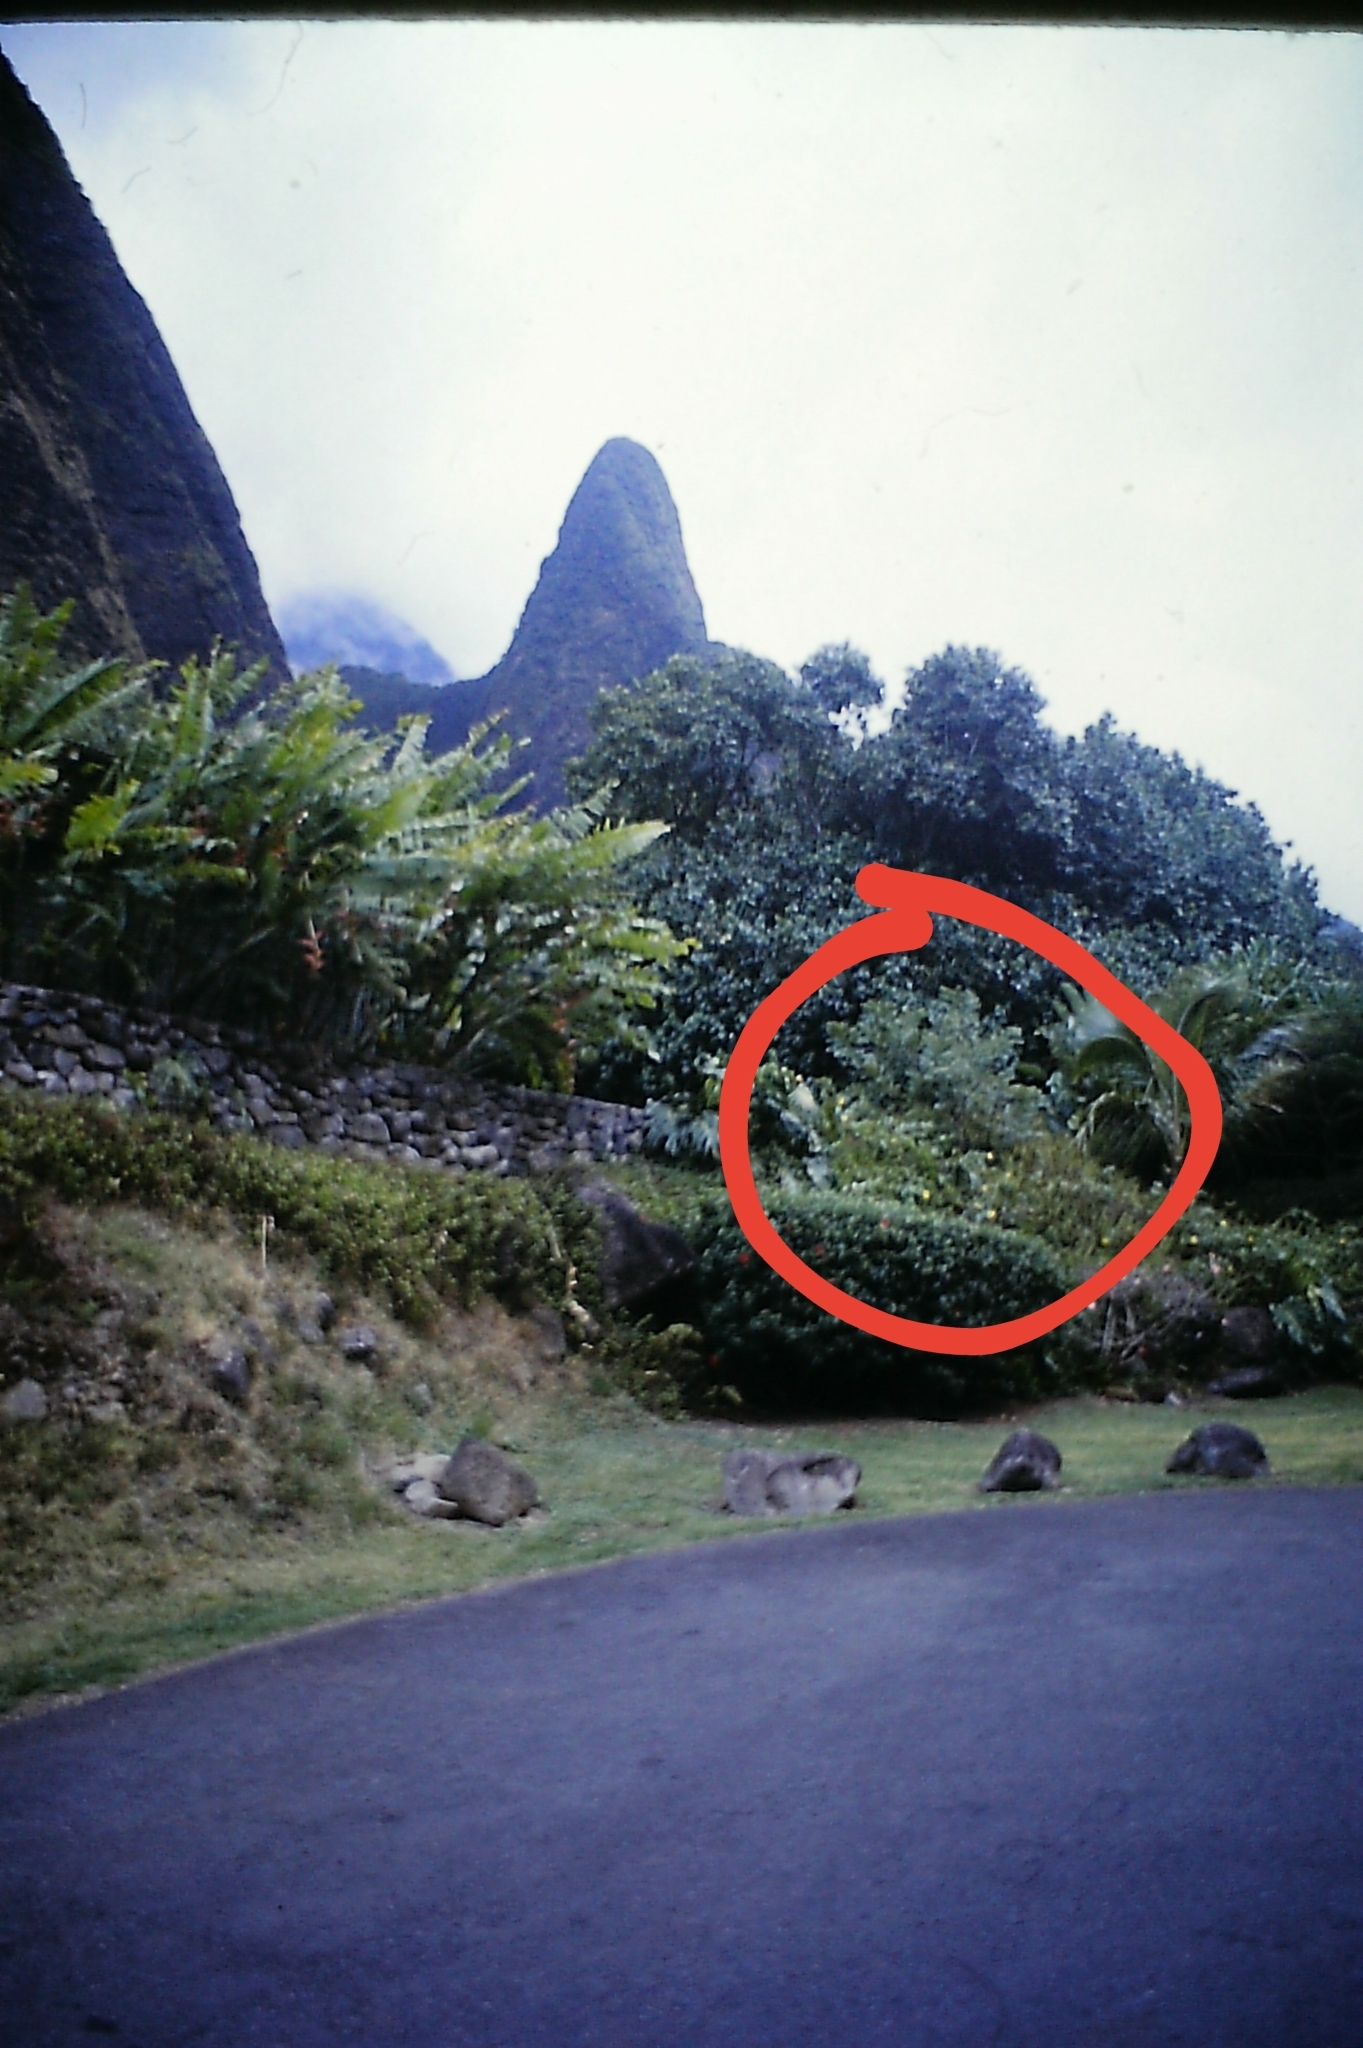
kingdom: Plantae
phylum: Tracheophyta
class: Liliopsida
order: Alismatales
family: Araceae
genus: Monstera
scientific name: Monstera deliciosa
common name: Cut-leaf-philodendron
